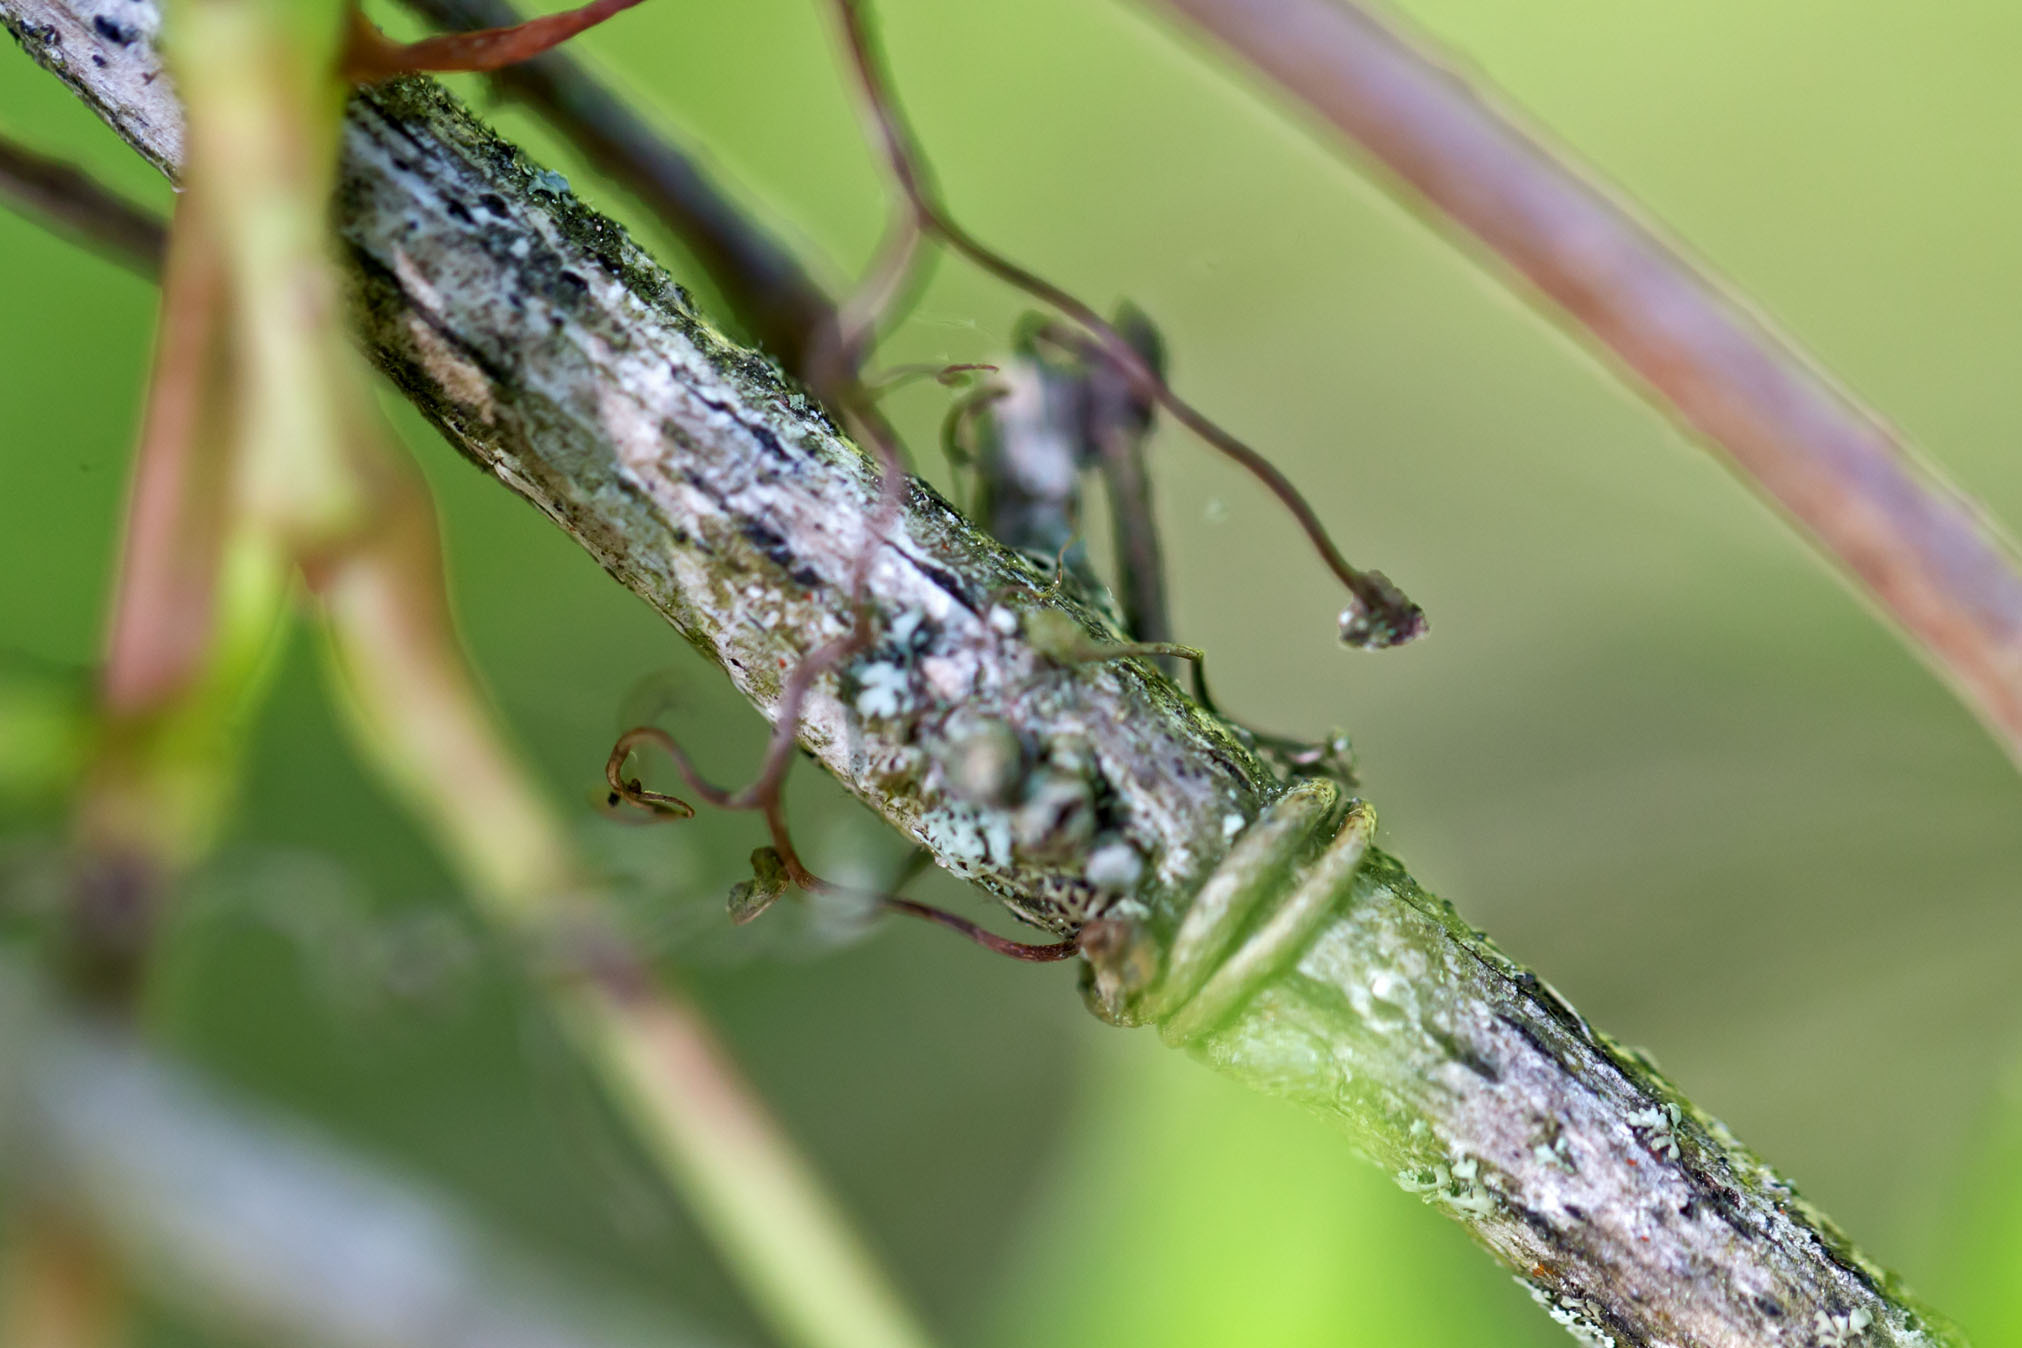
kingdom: Plantae
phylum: Tracheophyta
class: Magnoliopsida
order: Vitales
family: Vitaceae
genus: Parthenocissus
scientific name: Parthenocissus quinquefolia
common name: Virginia-creeper
